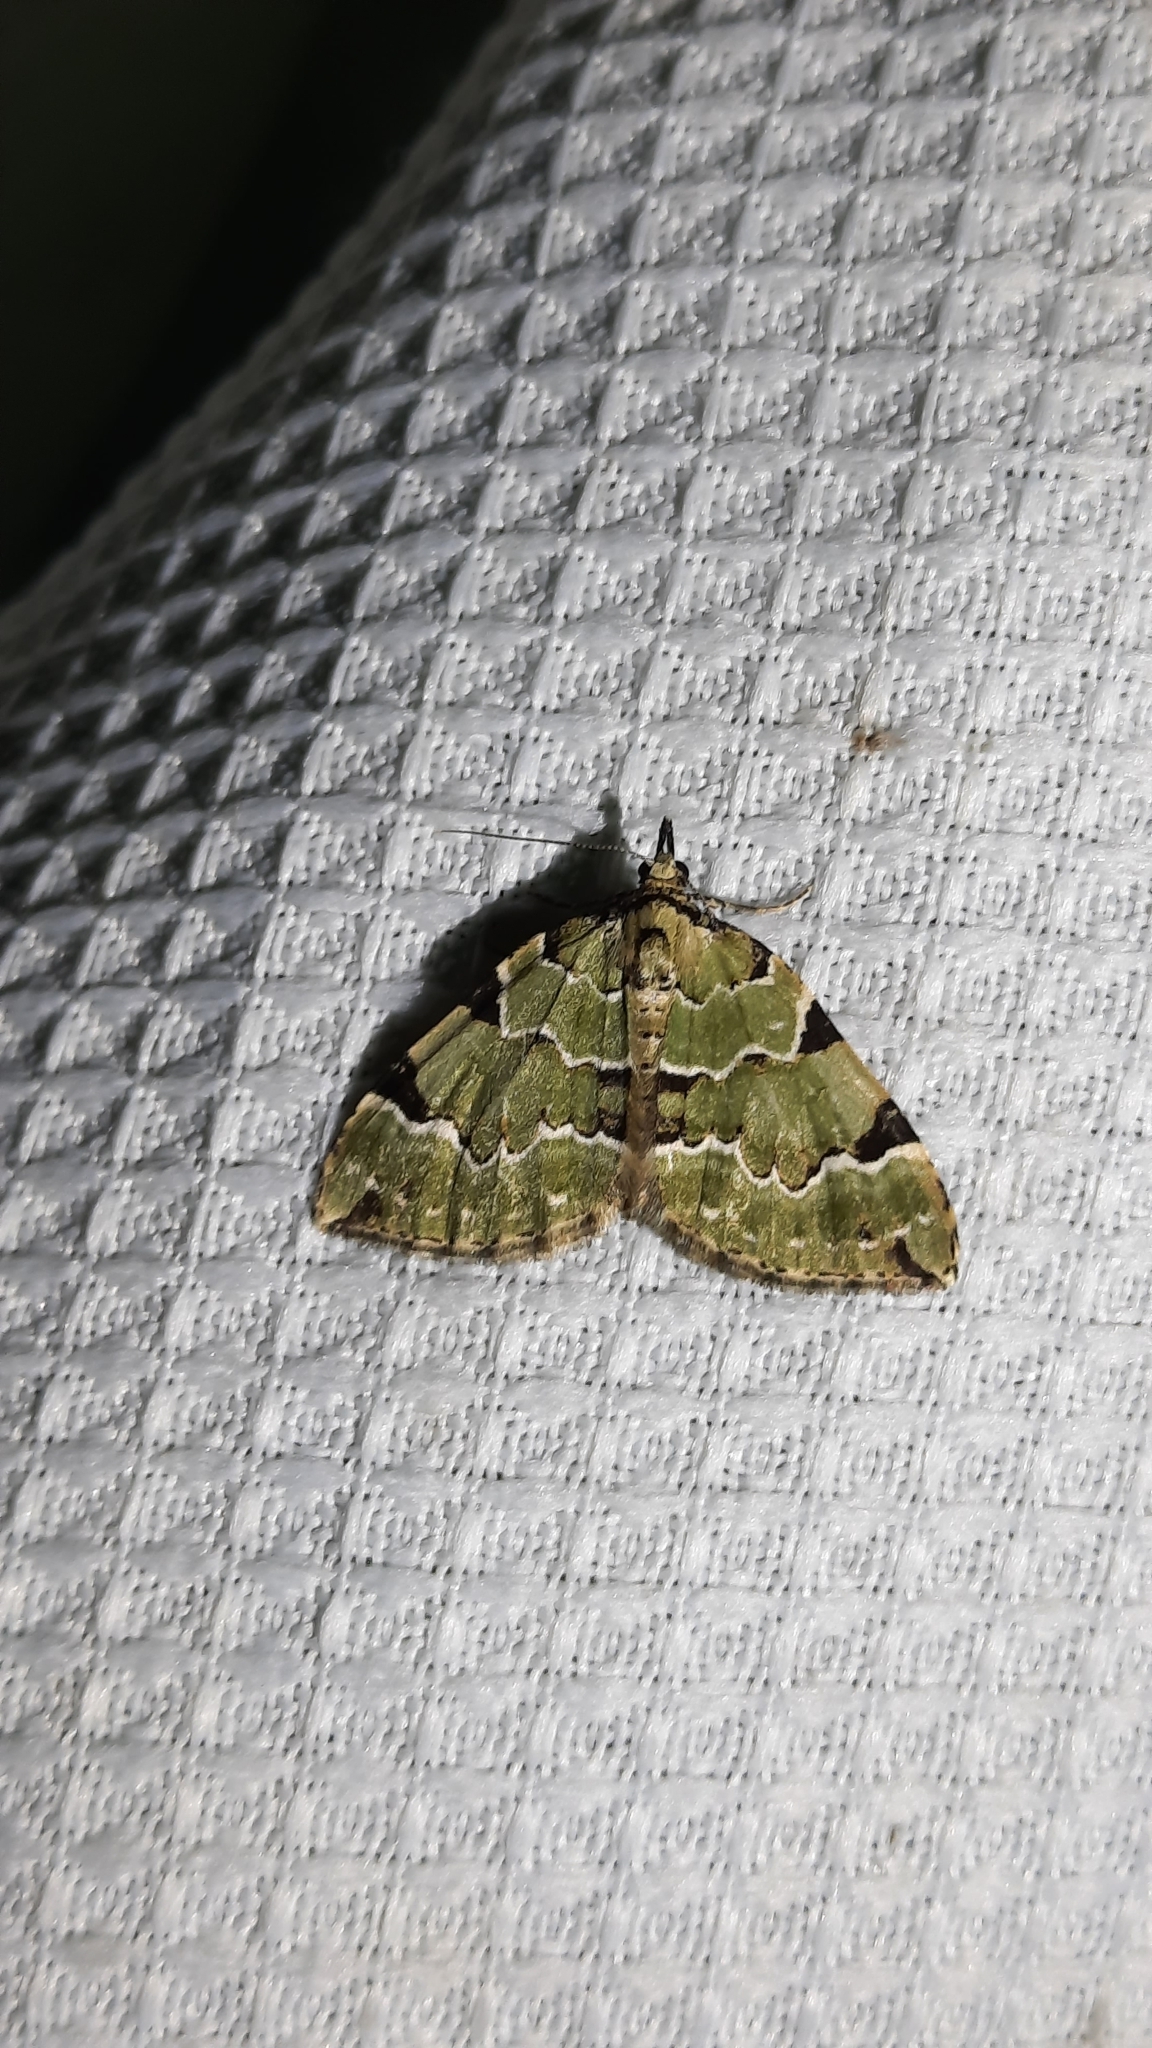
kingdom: Animalia
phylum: Arthropoda
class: Insecta
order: Lepidoptera
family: Geometridae
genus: Colostygia
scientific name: Colostygia pectinataria
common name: Green carpet
